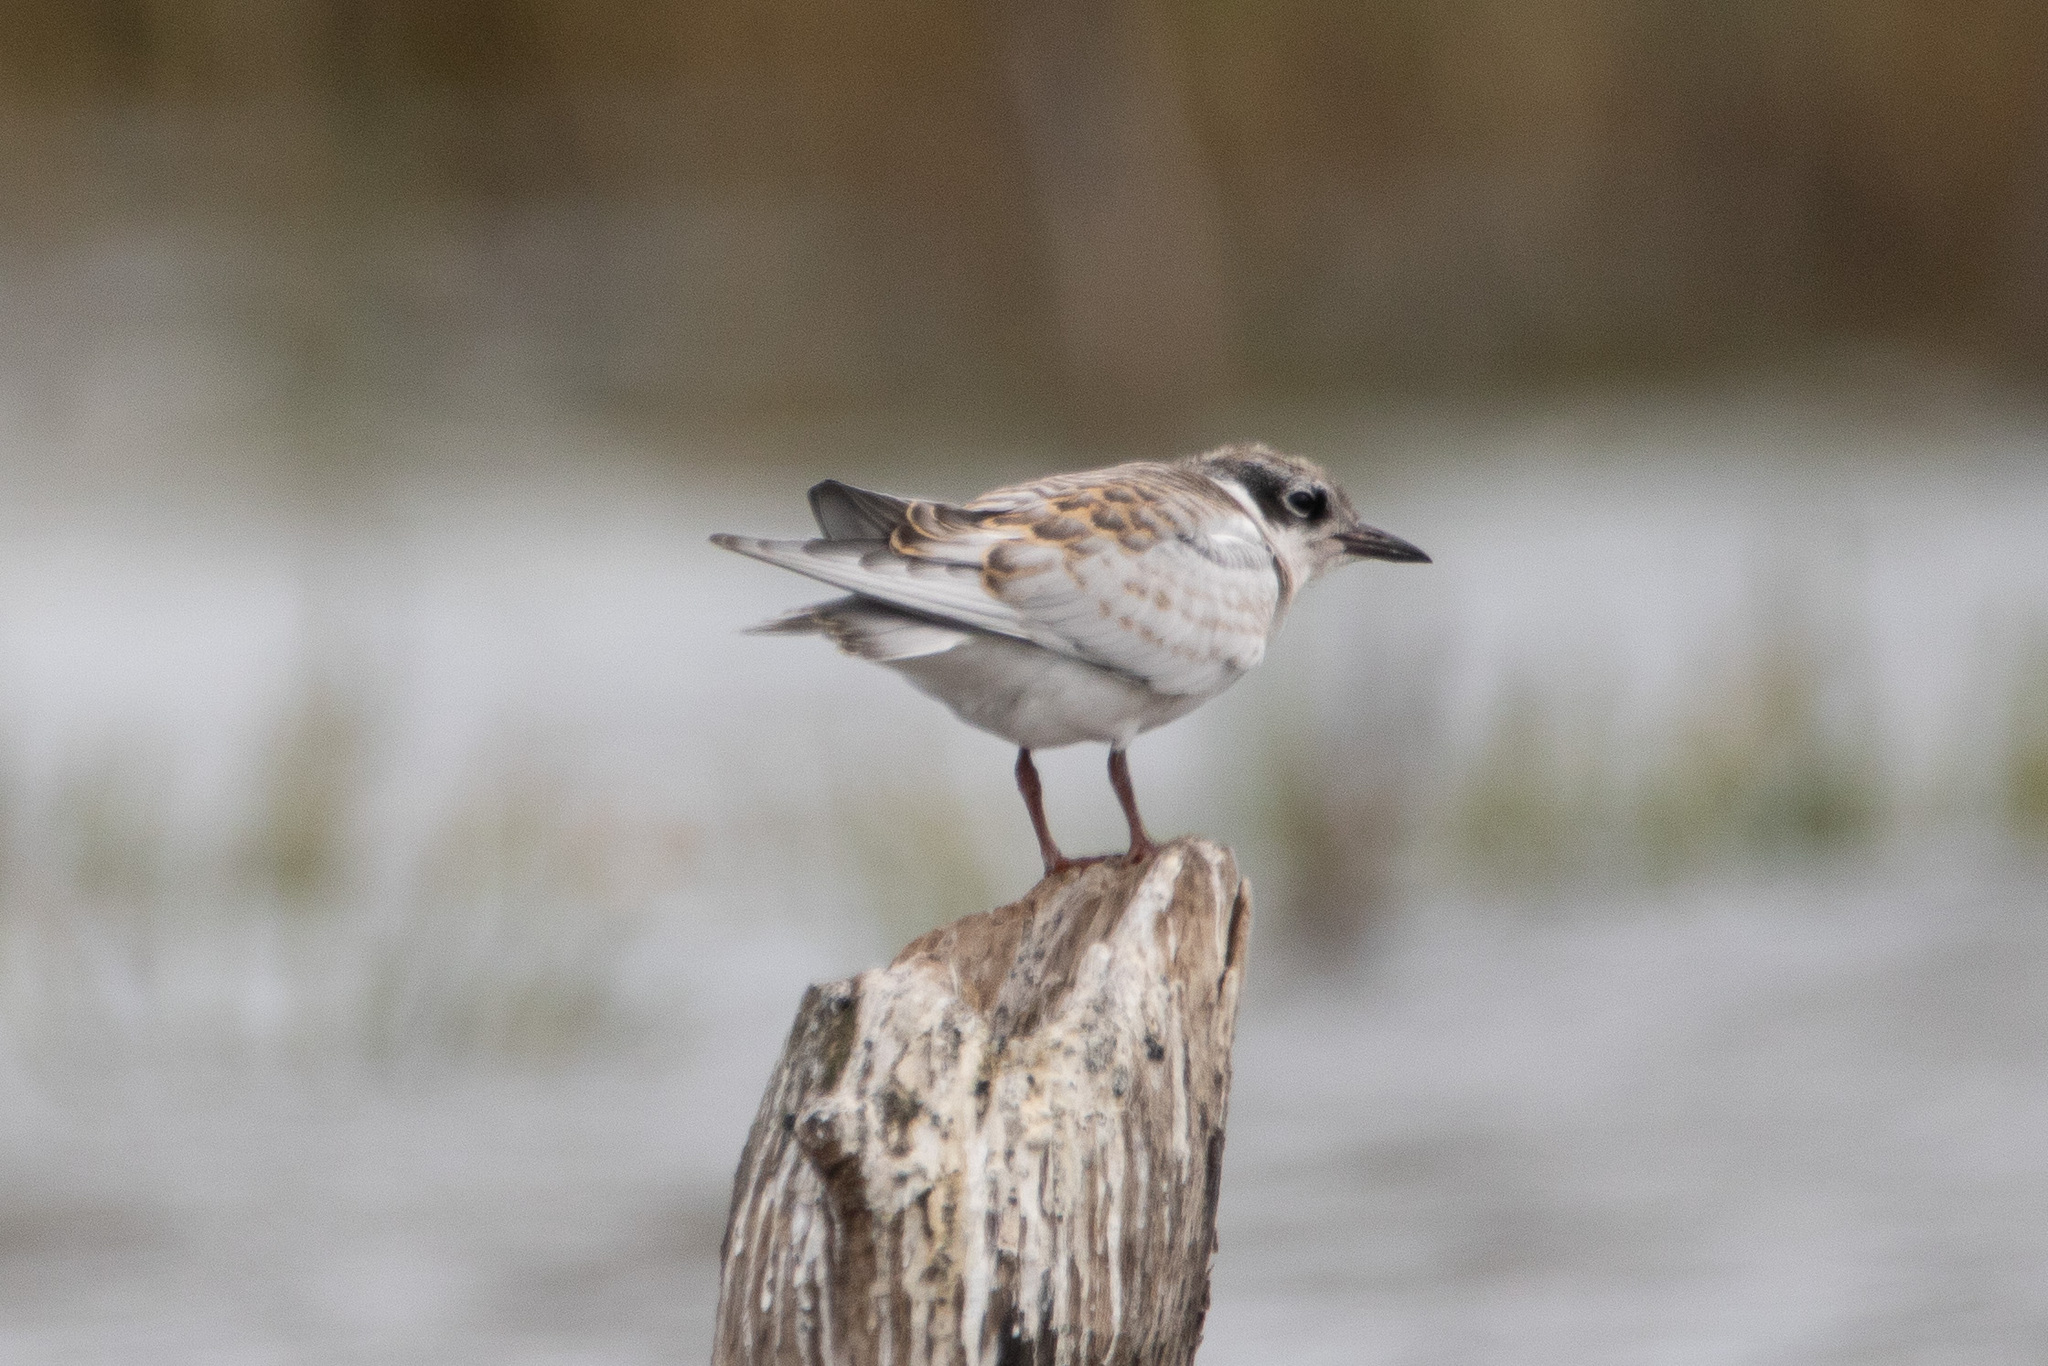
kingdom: Animalia
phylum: Chordata
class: Aves
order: Charadriiformes
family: Laridae
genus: Chlidonias
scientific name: Chlidonias hybrida
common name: Whiskered tern
